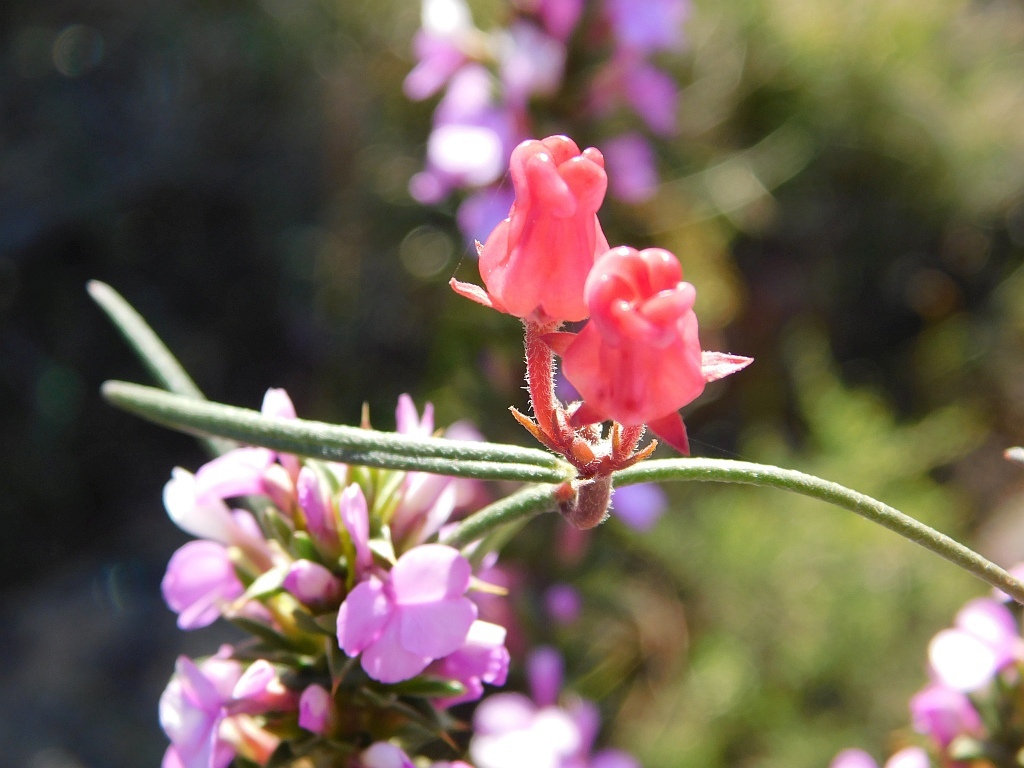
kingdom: Plantae
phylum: Tracheophyta
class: Magnoliopsida
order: Gentianales
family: Apocynaceae
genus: Microloma
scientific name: Microloma tenuifolium
